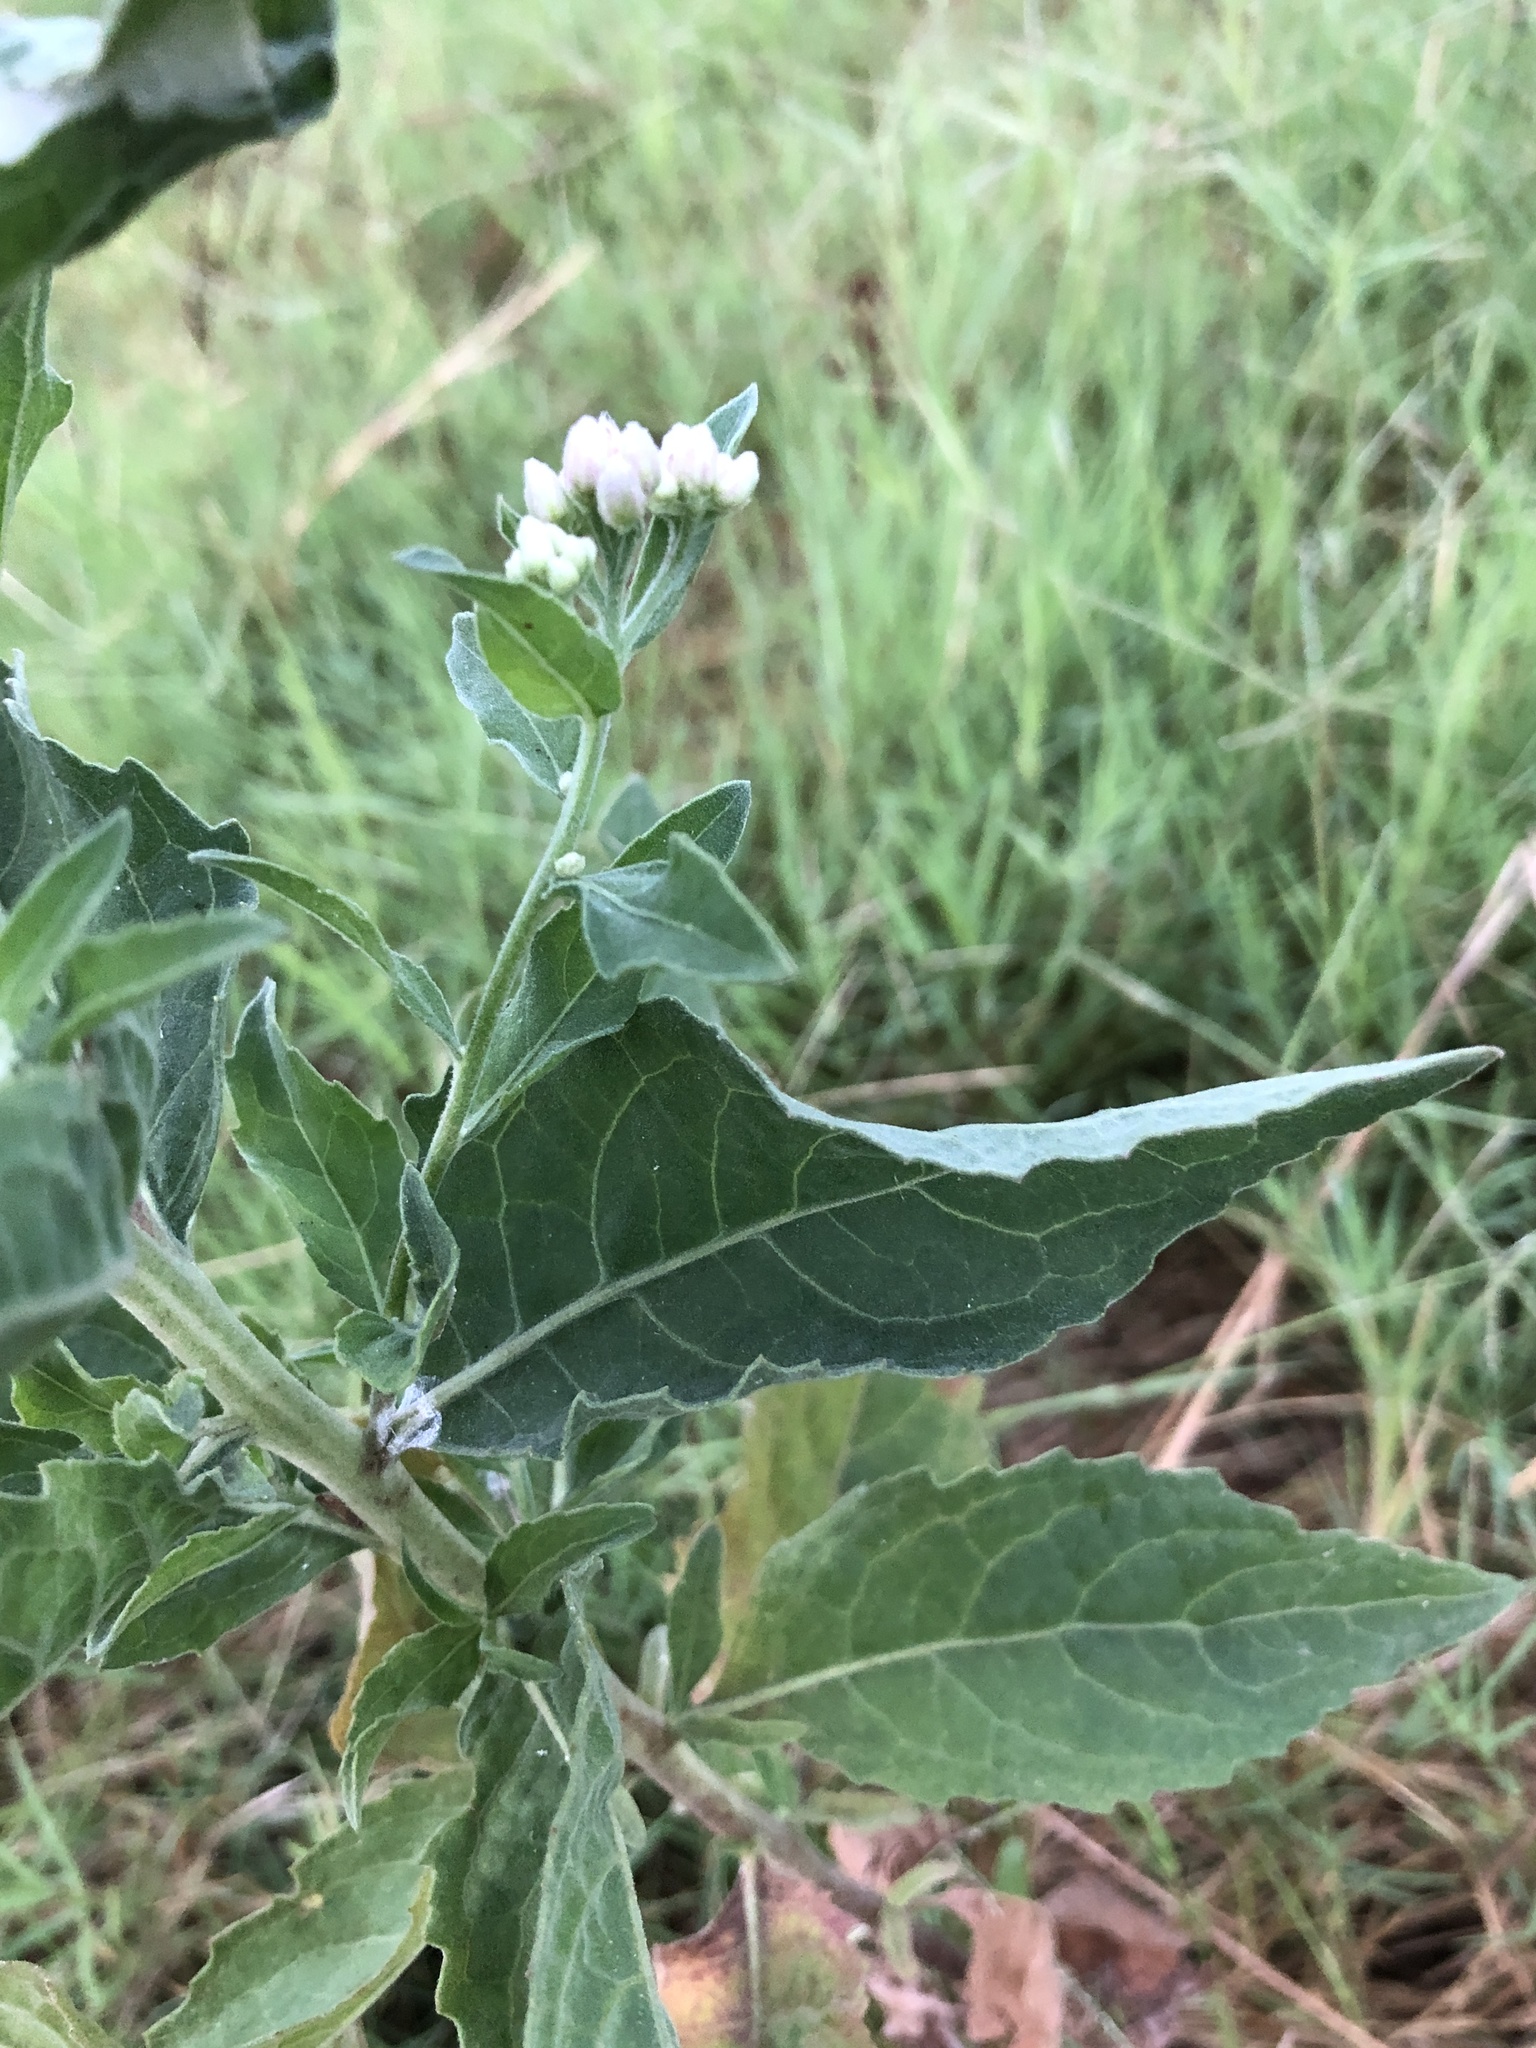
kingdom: Plantae
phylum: Tracheophyta
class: Magnoliopsida
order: Asterales
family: Asteraceae
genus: Pluchea
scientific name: Pluchea odorata
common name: Saltmarsh fleabane
